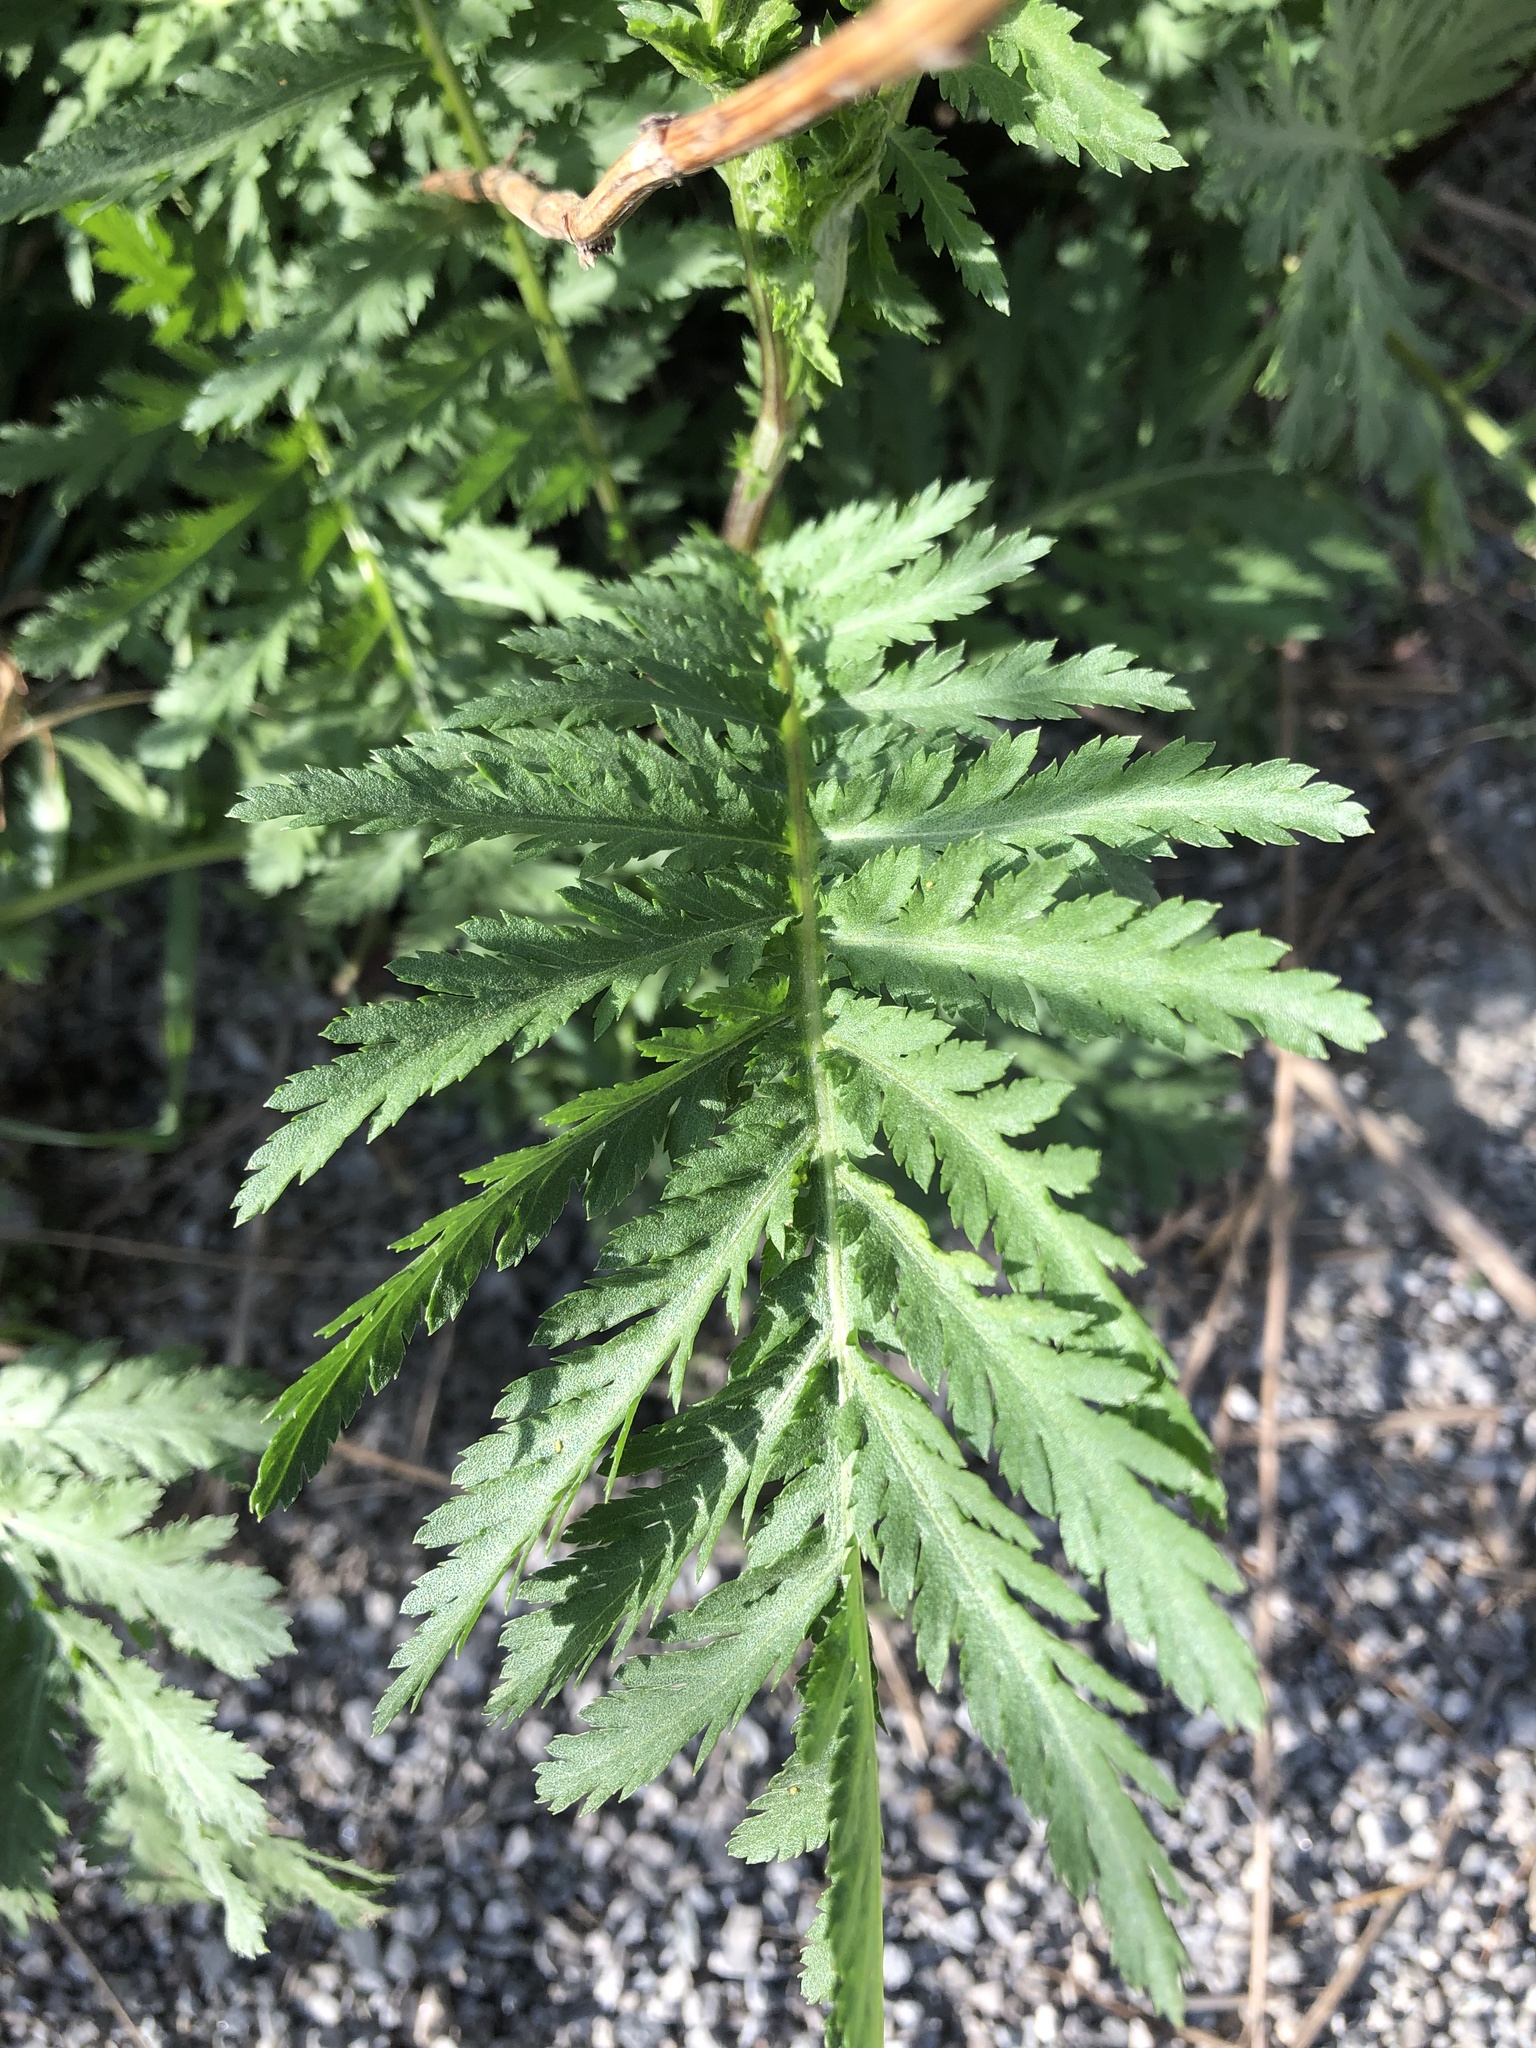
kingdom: Plantae
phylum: Tracheophyta
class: Magnoliopsida
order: Asterales
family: Asteraceae
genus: Tanacetum
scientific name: Tanacetum vulgare
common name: Common tansy
